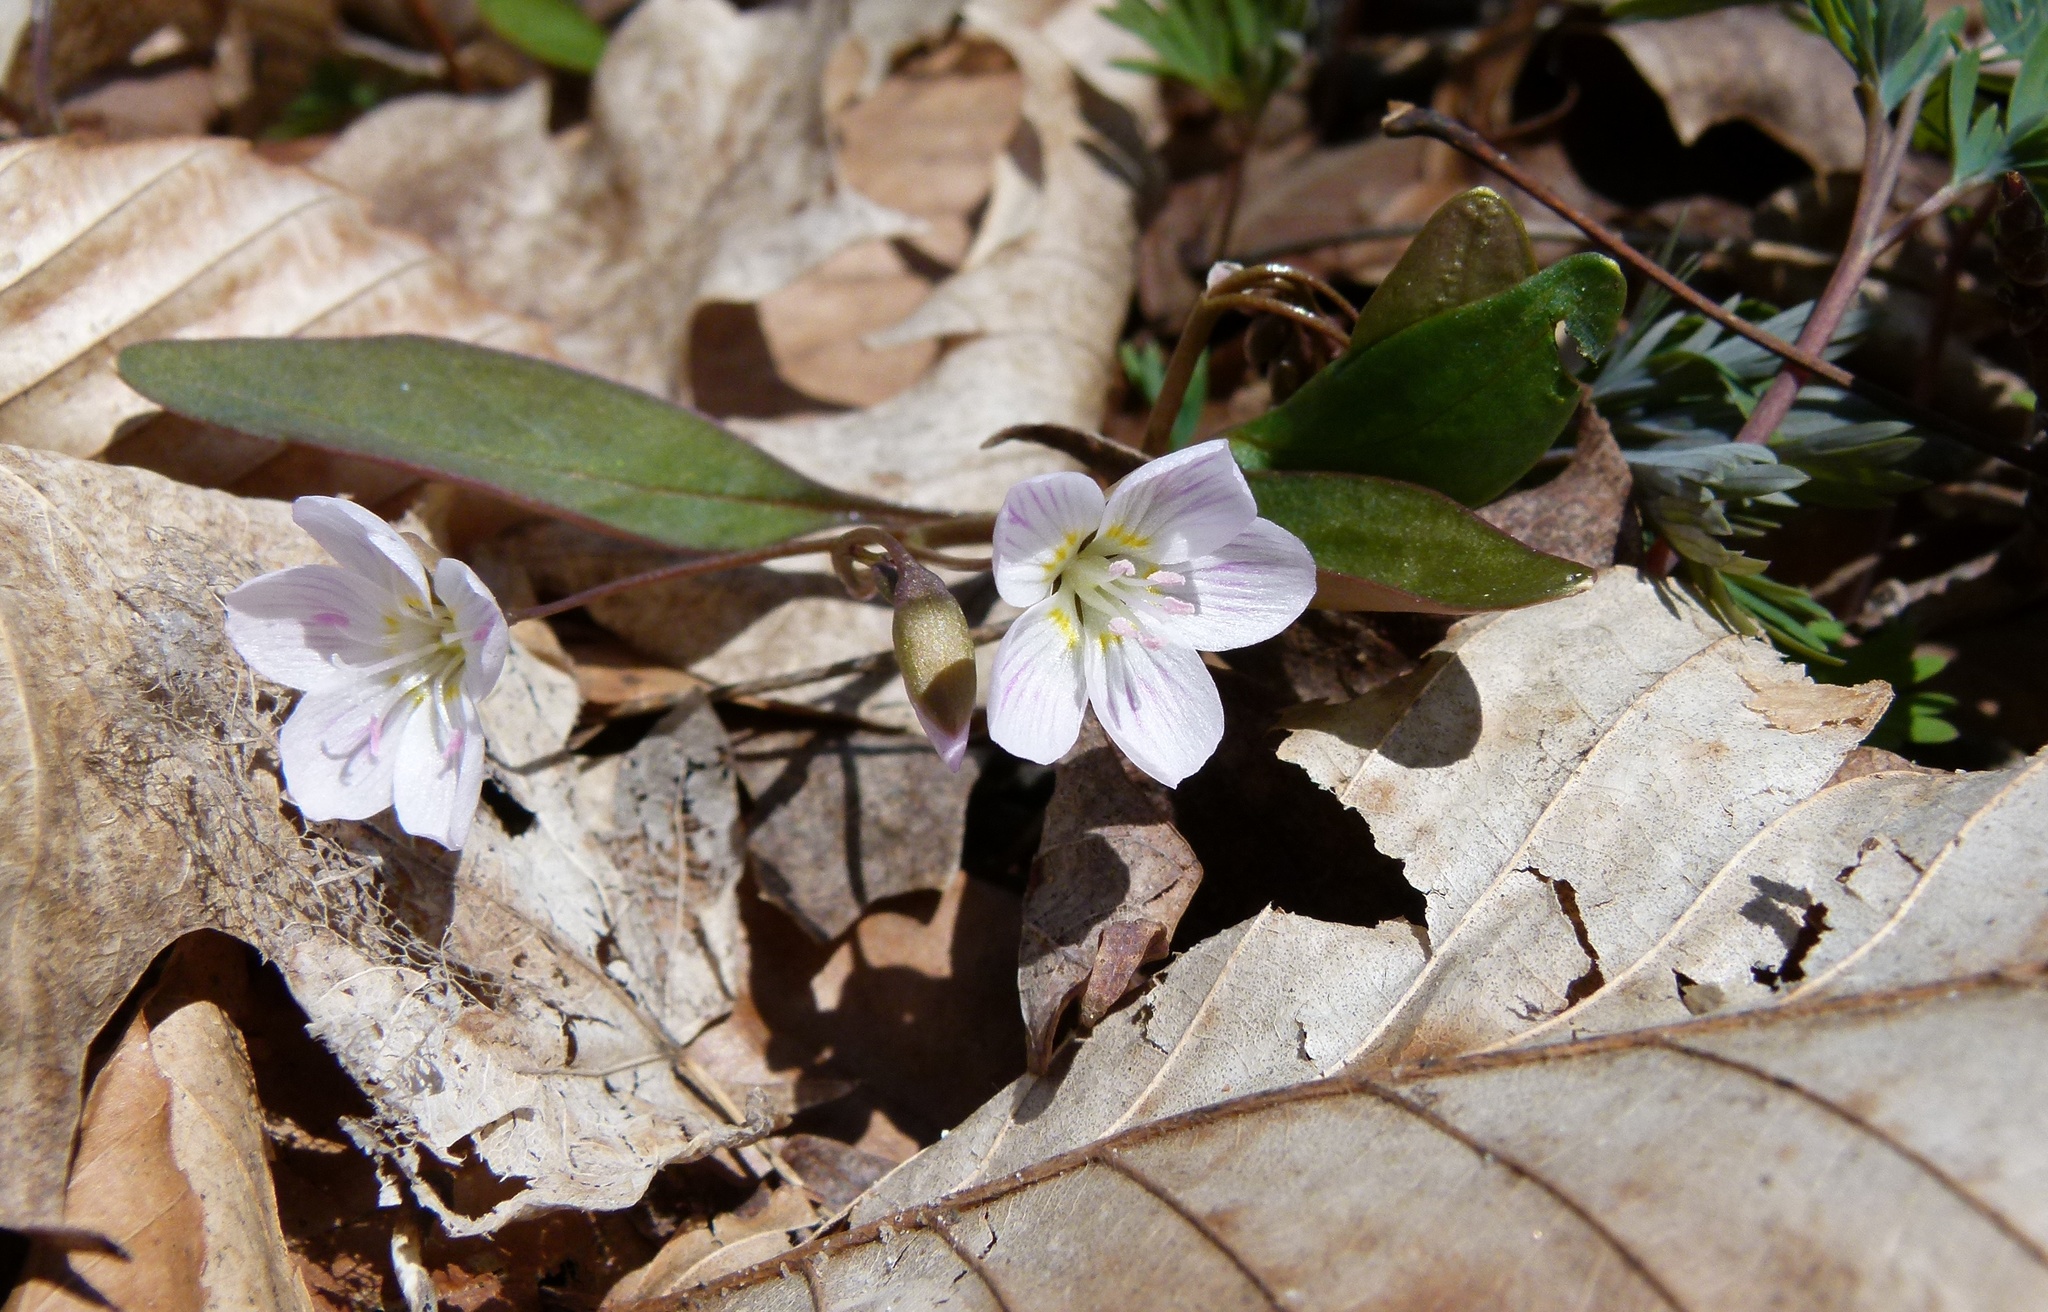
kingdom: Plantae
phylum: Tracheophyta
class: Magnoliopsida
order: Caryophyllales
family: Montiaceae
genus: Claytonia
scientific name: Claytonia caroliniana
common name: Carolina spring beauty
